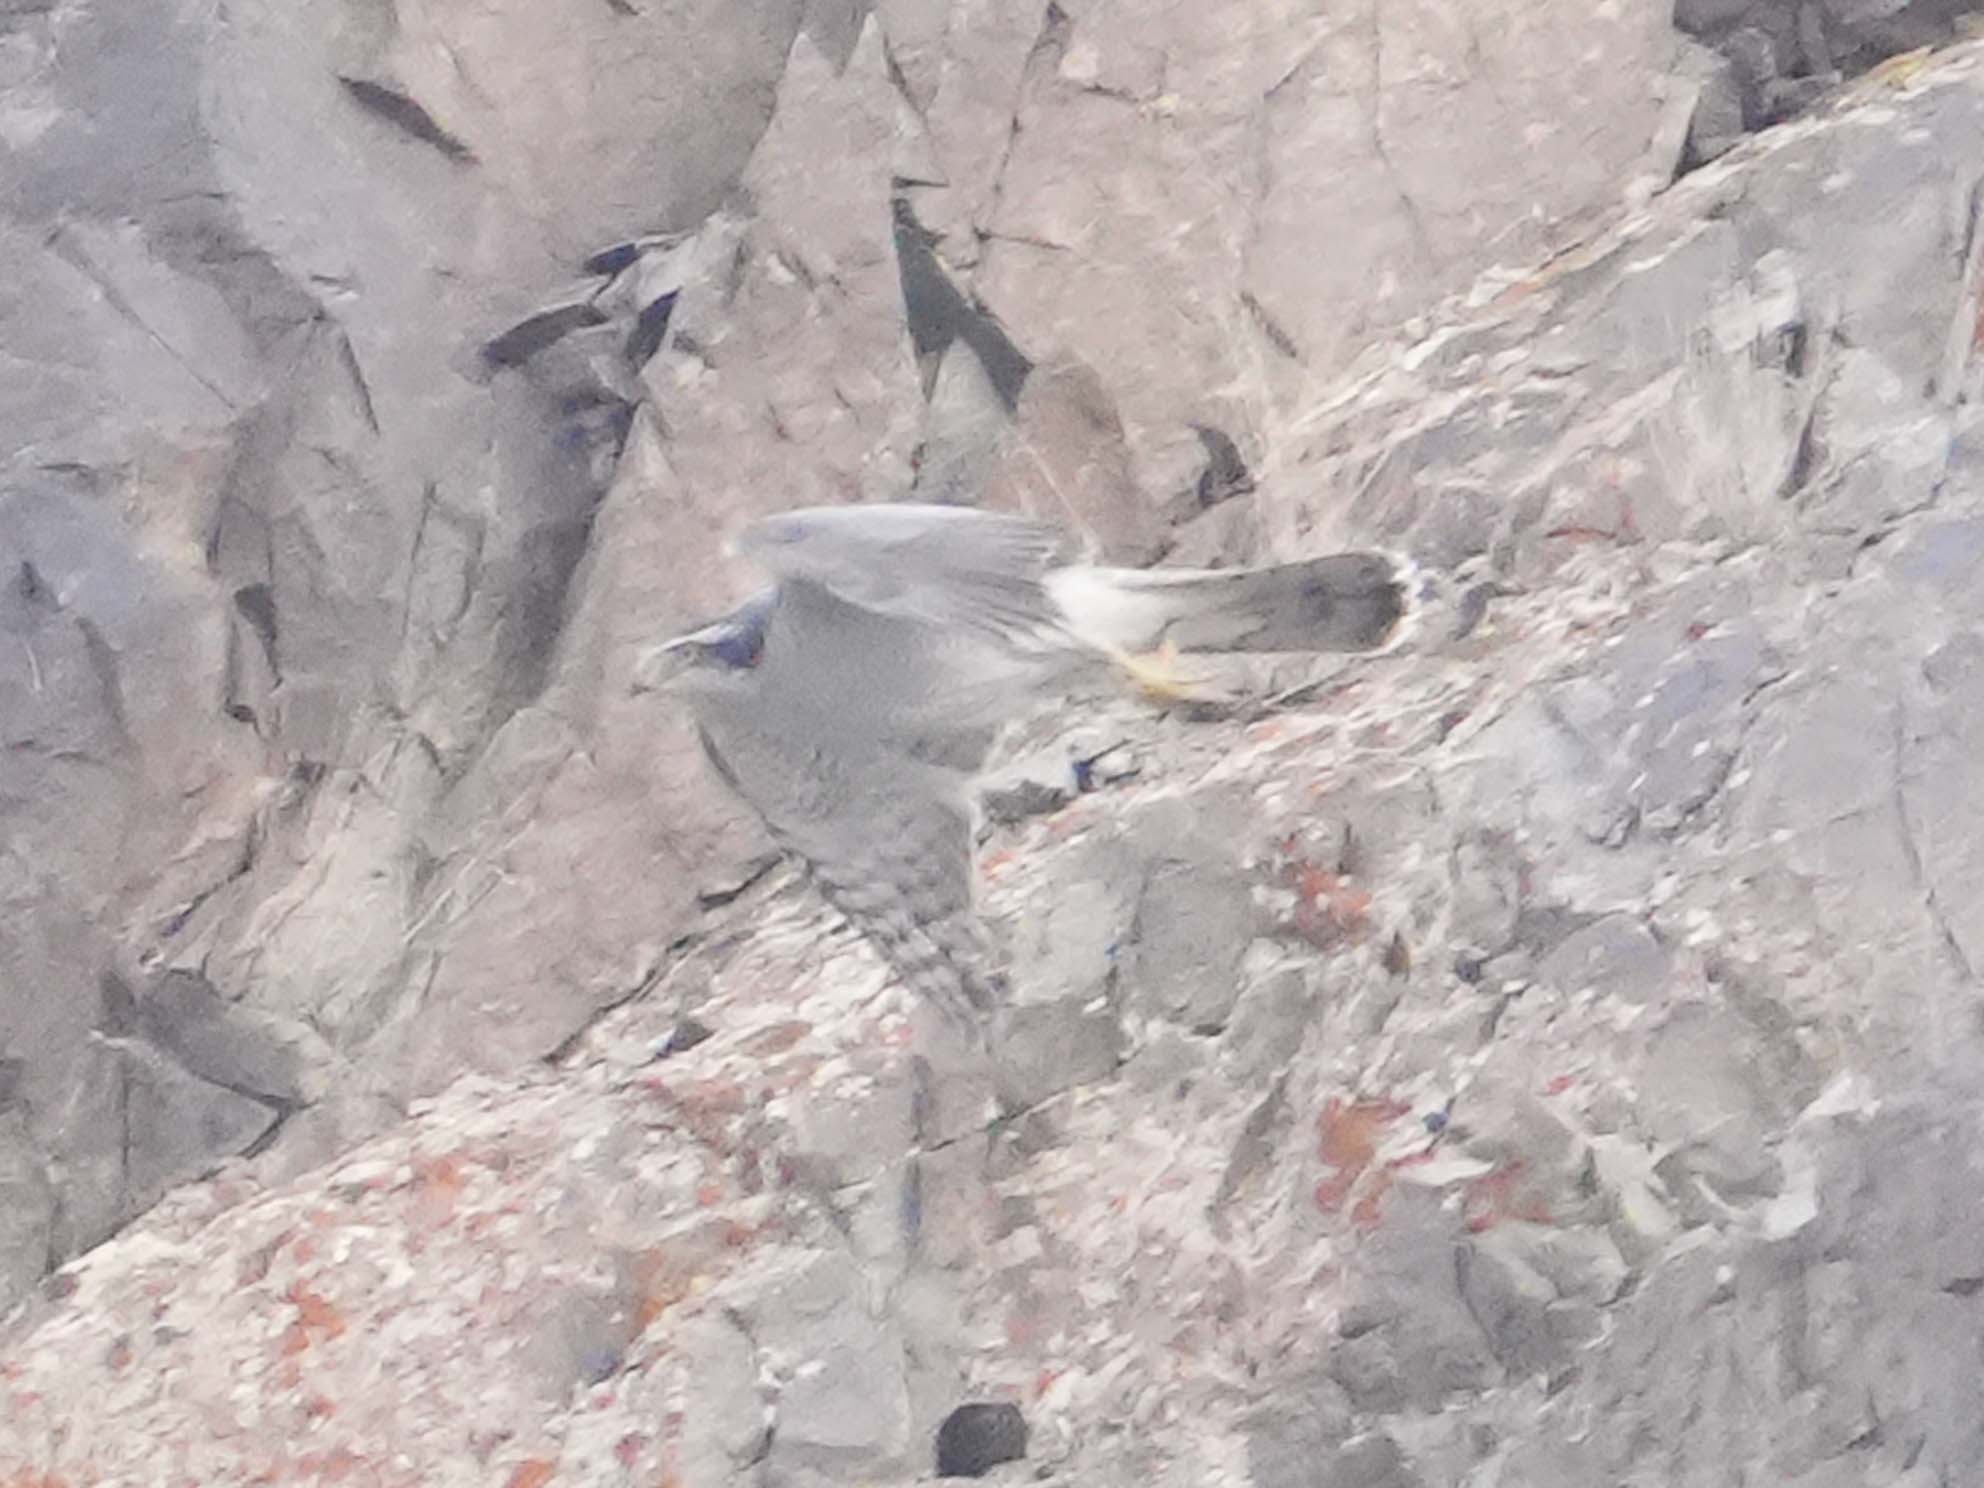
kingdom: Animalia
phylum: Chordata
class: Aves
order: Accipitriformes
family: Accipitridae
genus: Accipiter
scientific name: Accipiter gentilis
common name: Northern goshawk
